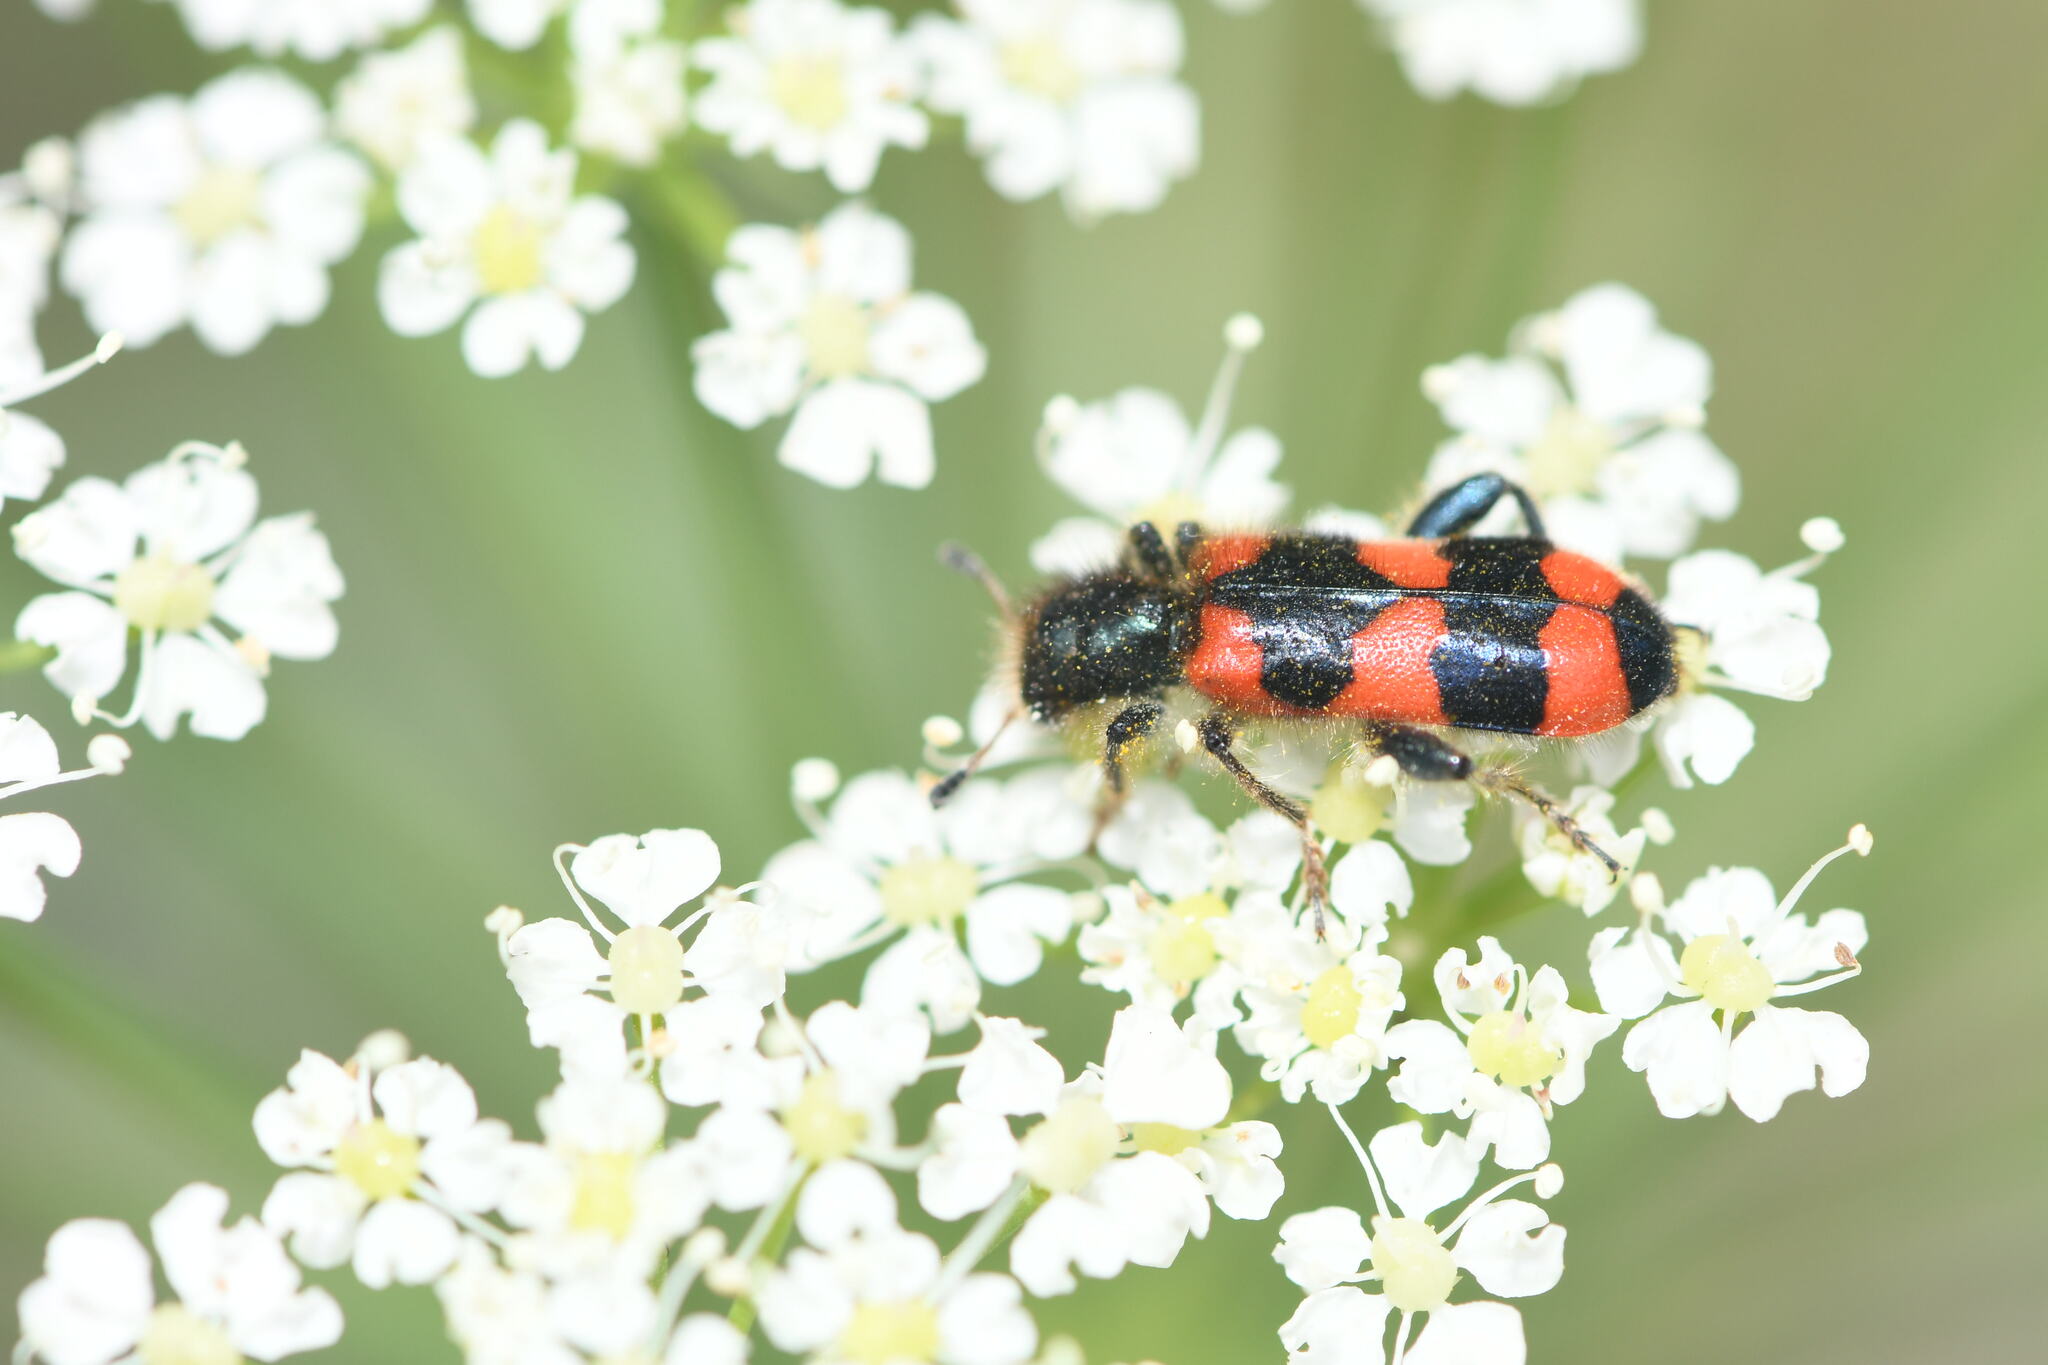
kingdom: Animalia
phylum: Arthropoda
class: Insecta
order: Coleoptera
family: Cleridae
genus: Trichodes
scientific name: Trichodes apiarius
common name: Bee-eating beetle
